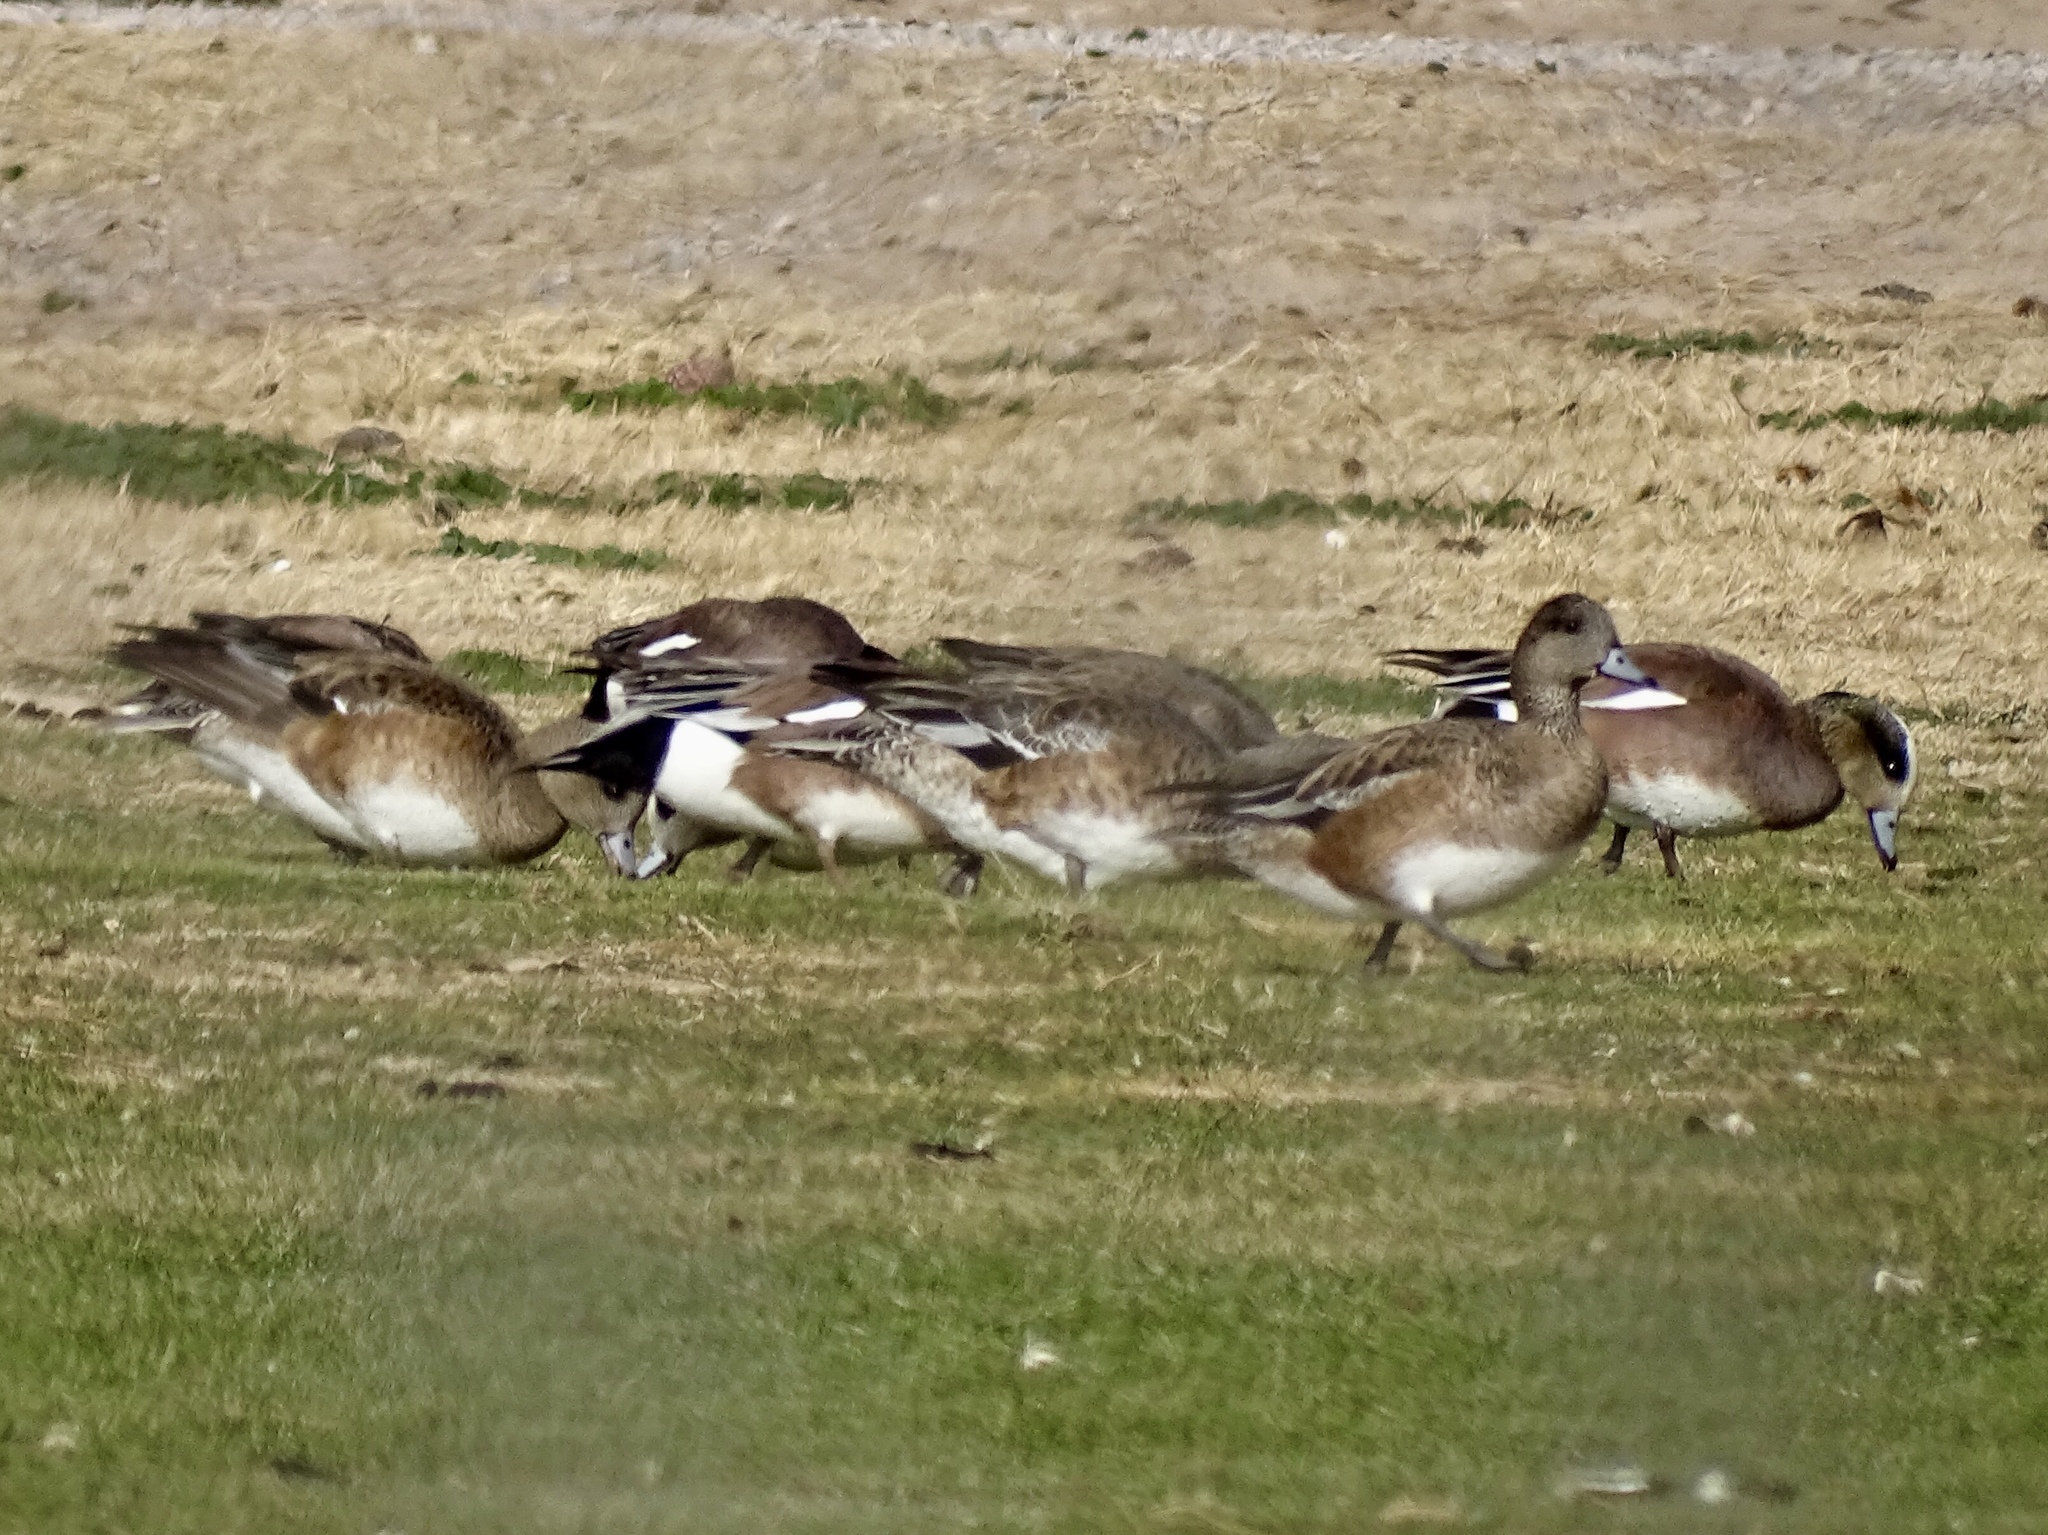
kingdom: Animalia
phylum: Chordata
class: Aves
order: Anseriformes
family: Anatidae
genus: Mareca
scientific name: Mareca americana
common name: American wigeon
